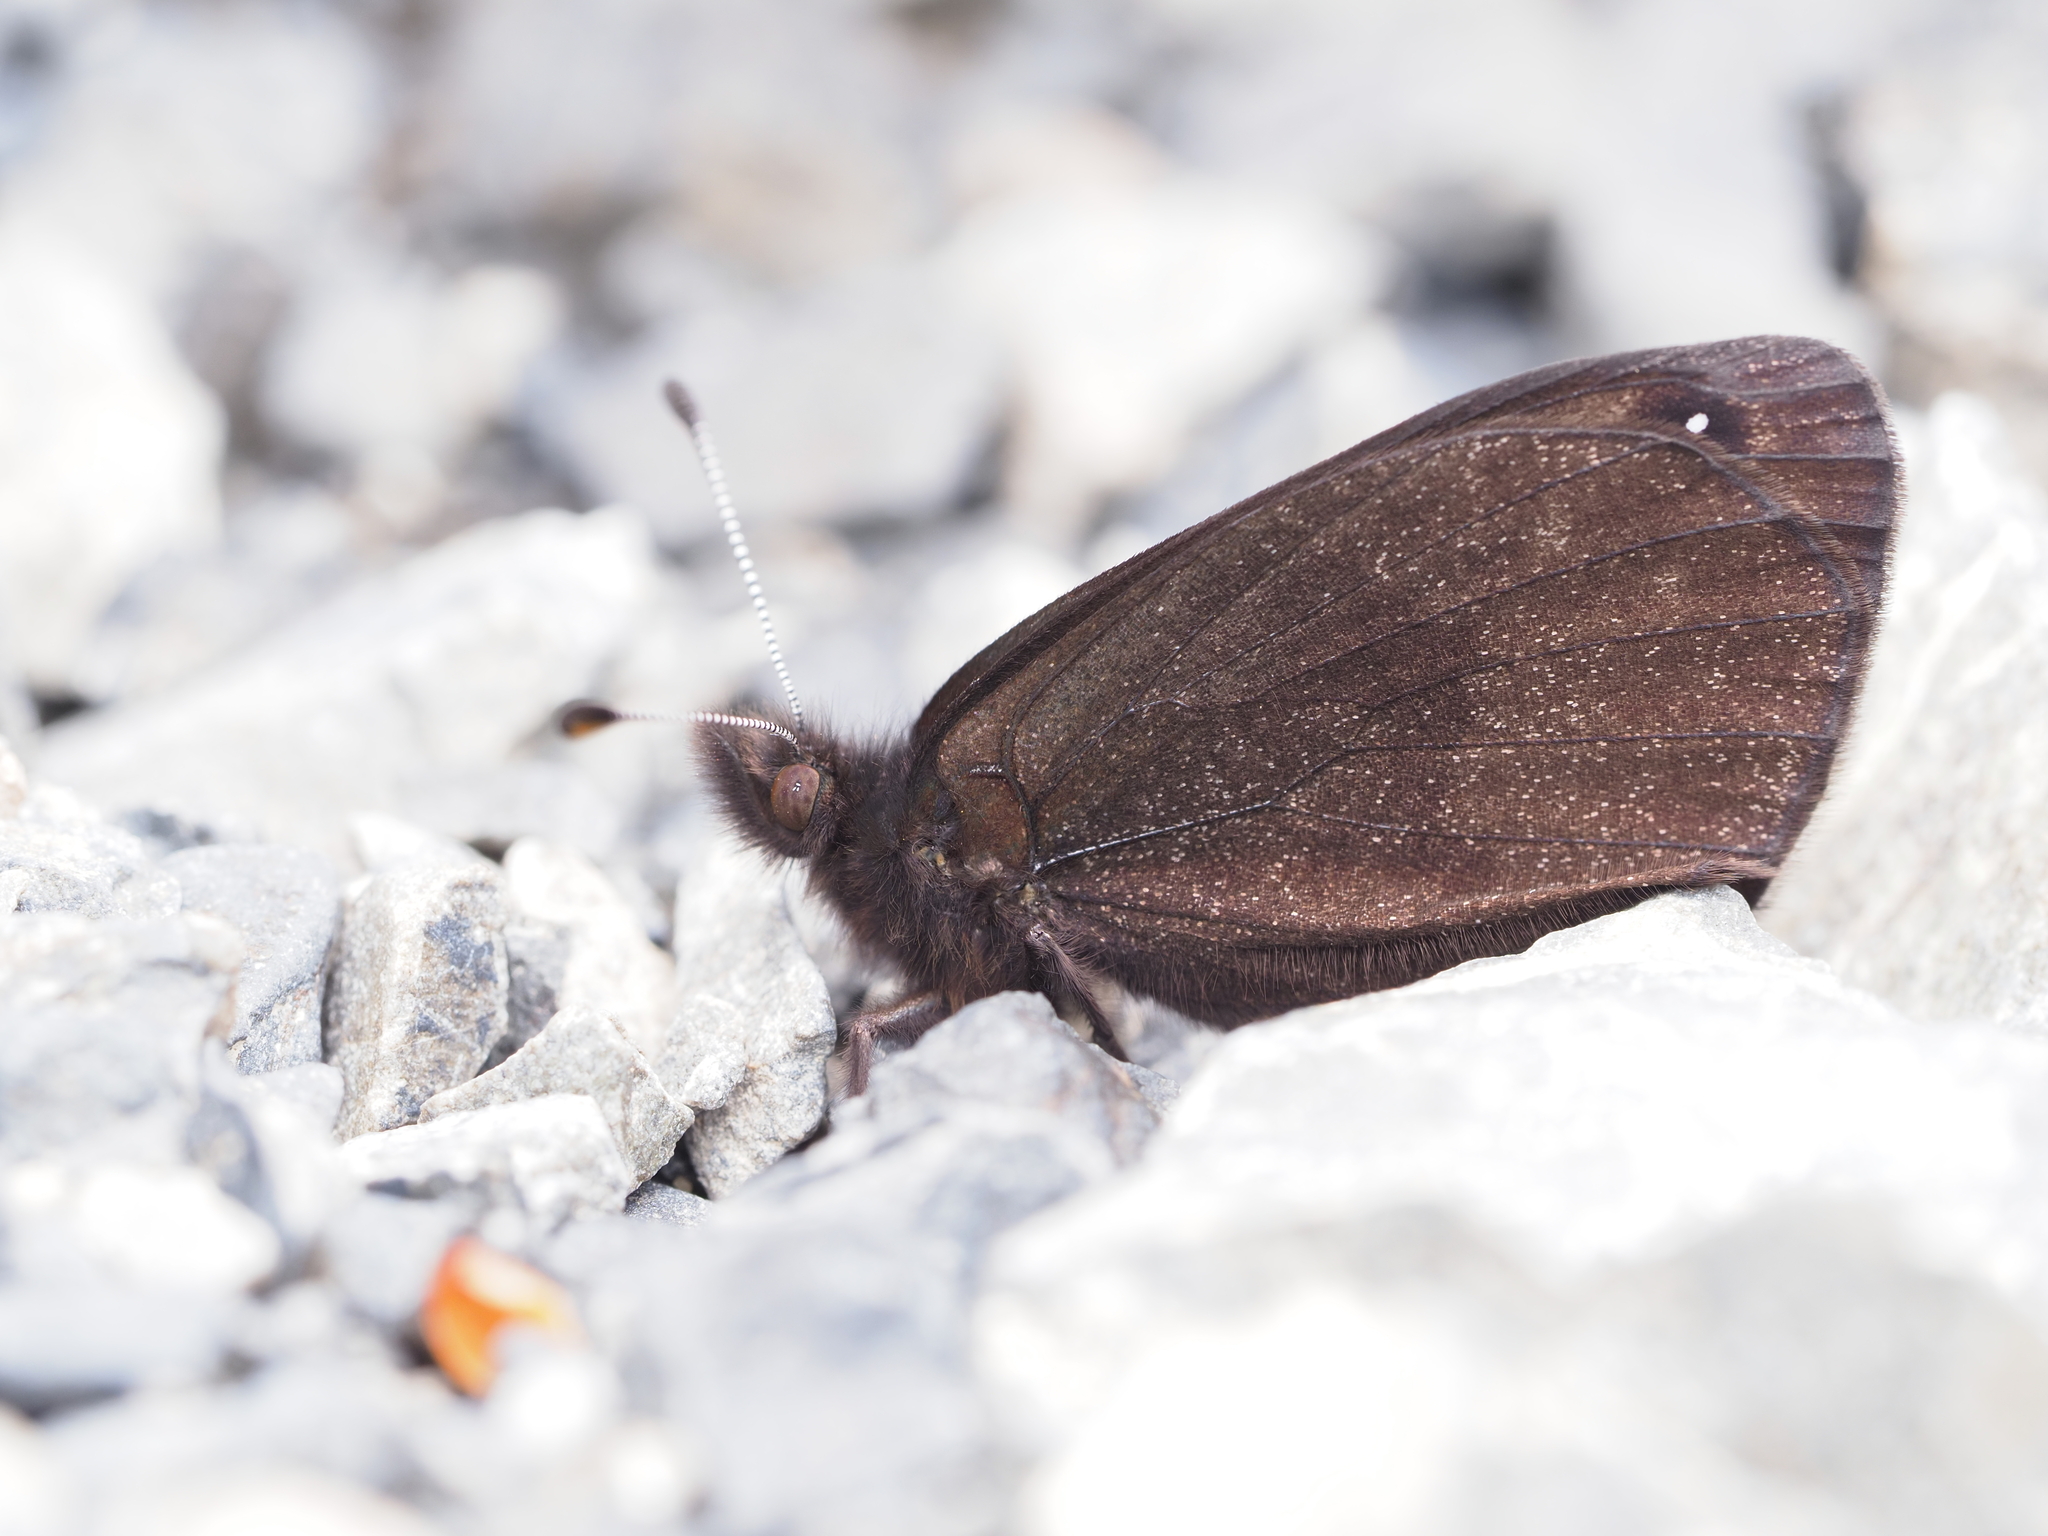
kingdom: Animalia
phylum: Arthropoda
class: Insecta
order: Lepidoptera
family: Nymphalidae
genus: Erebia
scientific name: Erebia Percnodaimon merula
